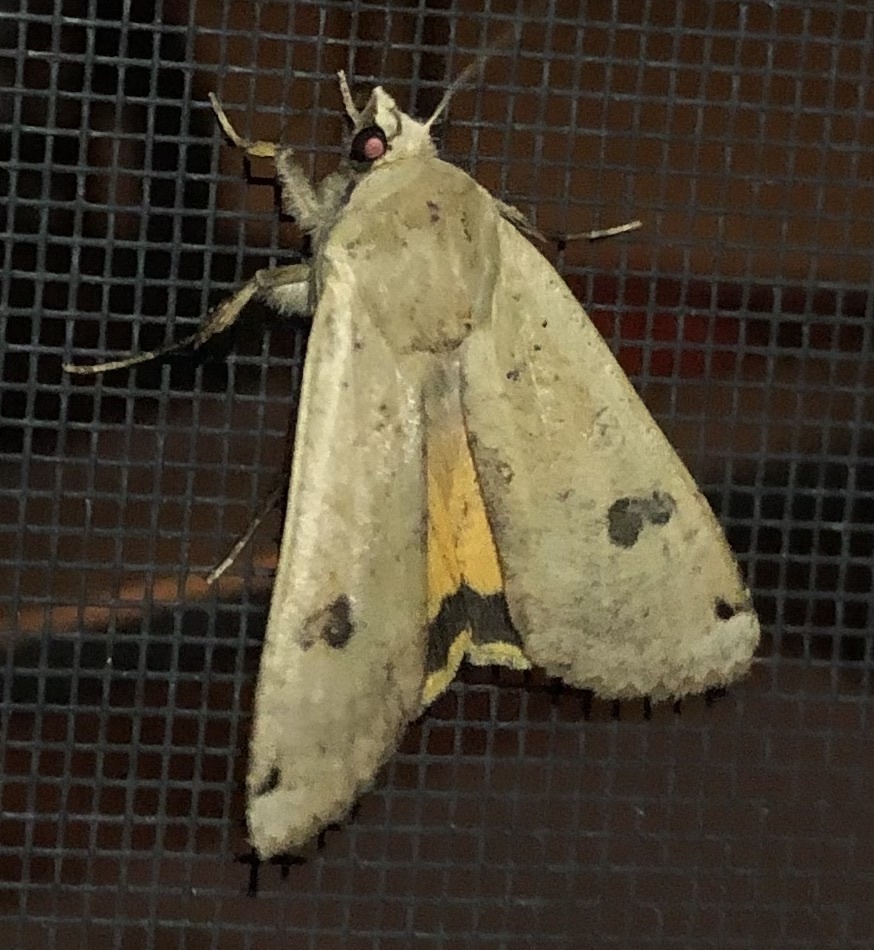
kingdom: Animalia
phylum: Arthropoda
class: Insecta
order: Lepidoptera
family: Noctuidae
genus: Noctua
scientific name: Noctua pronuba
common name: Large yellow underwing
